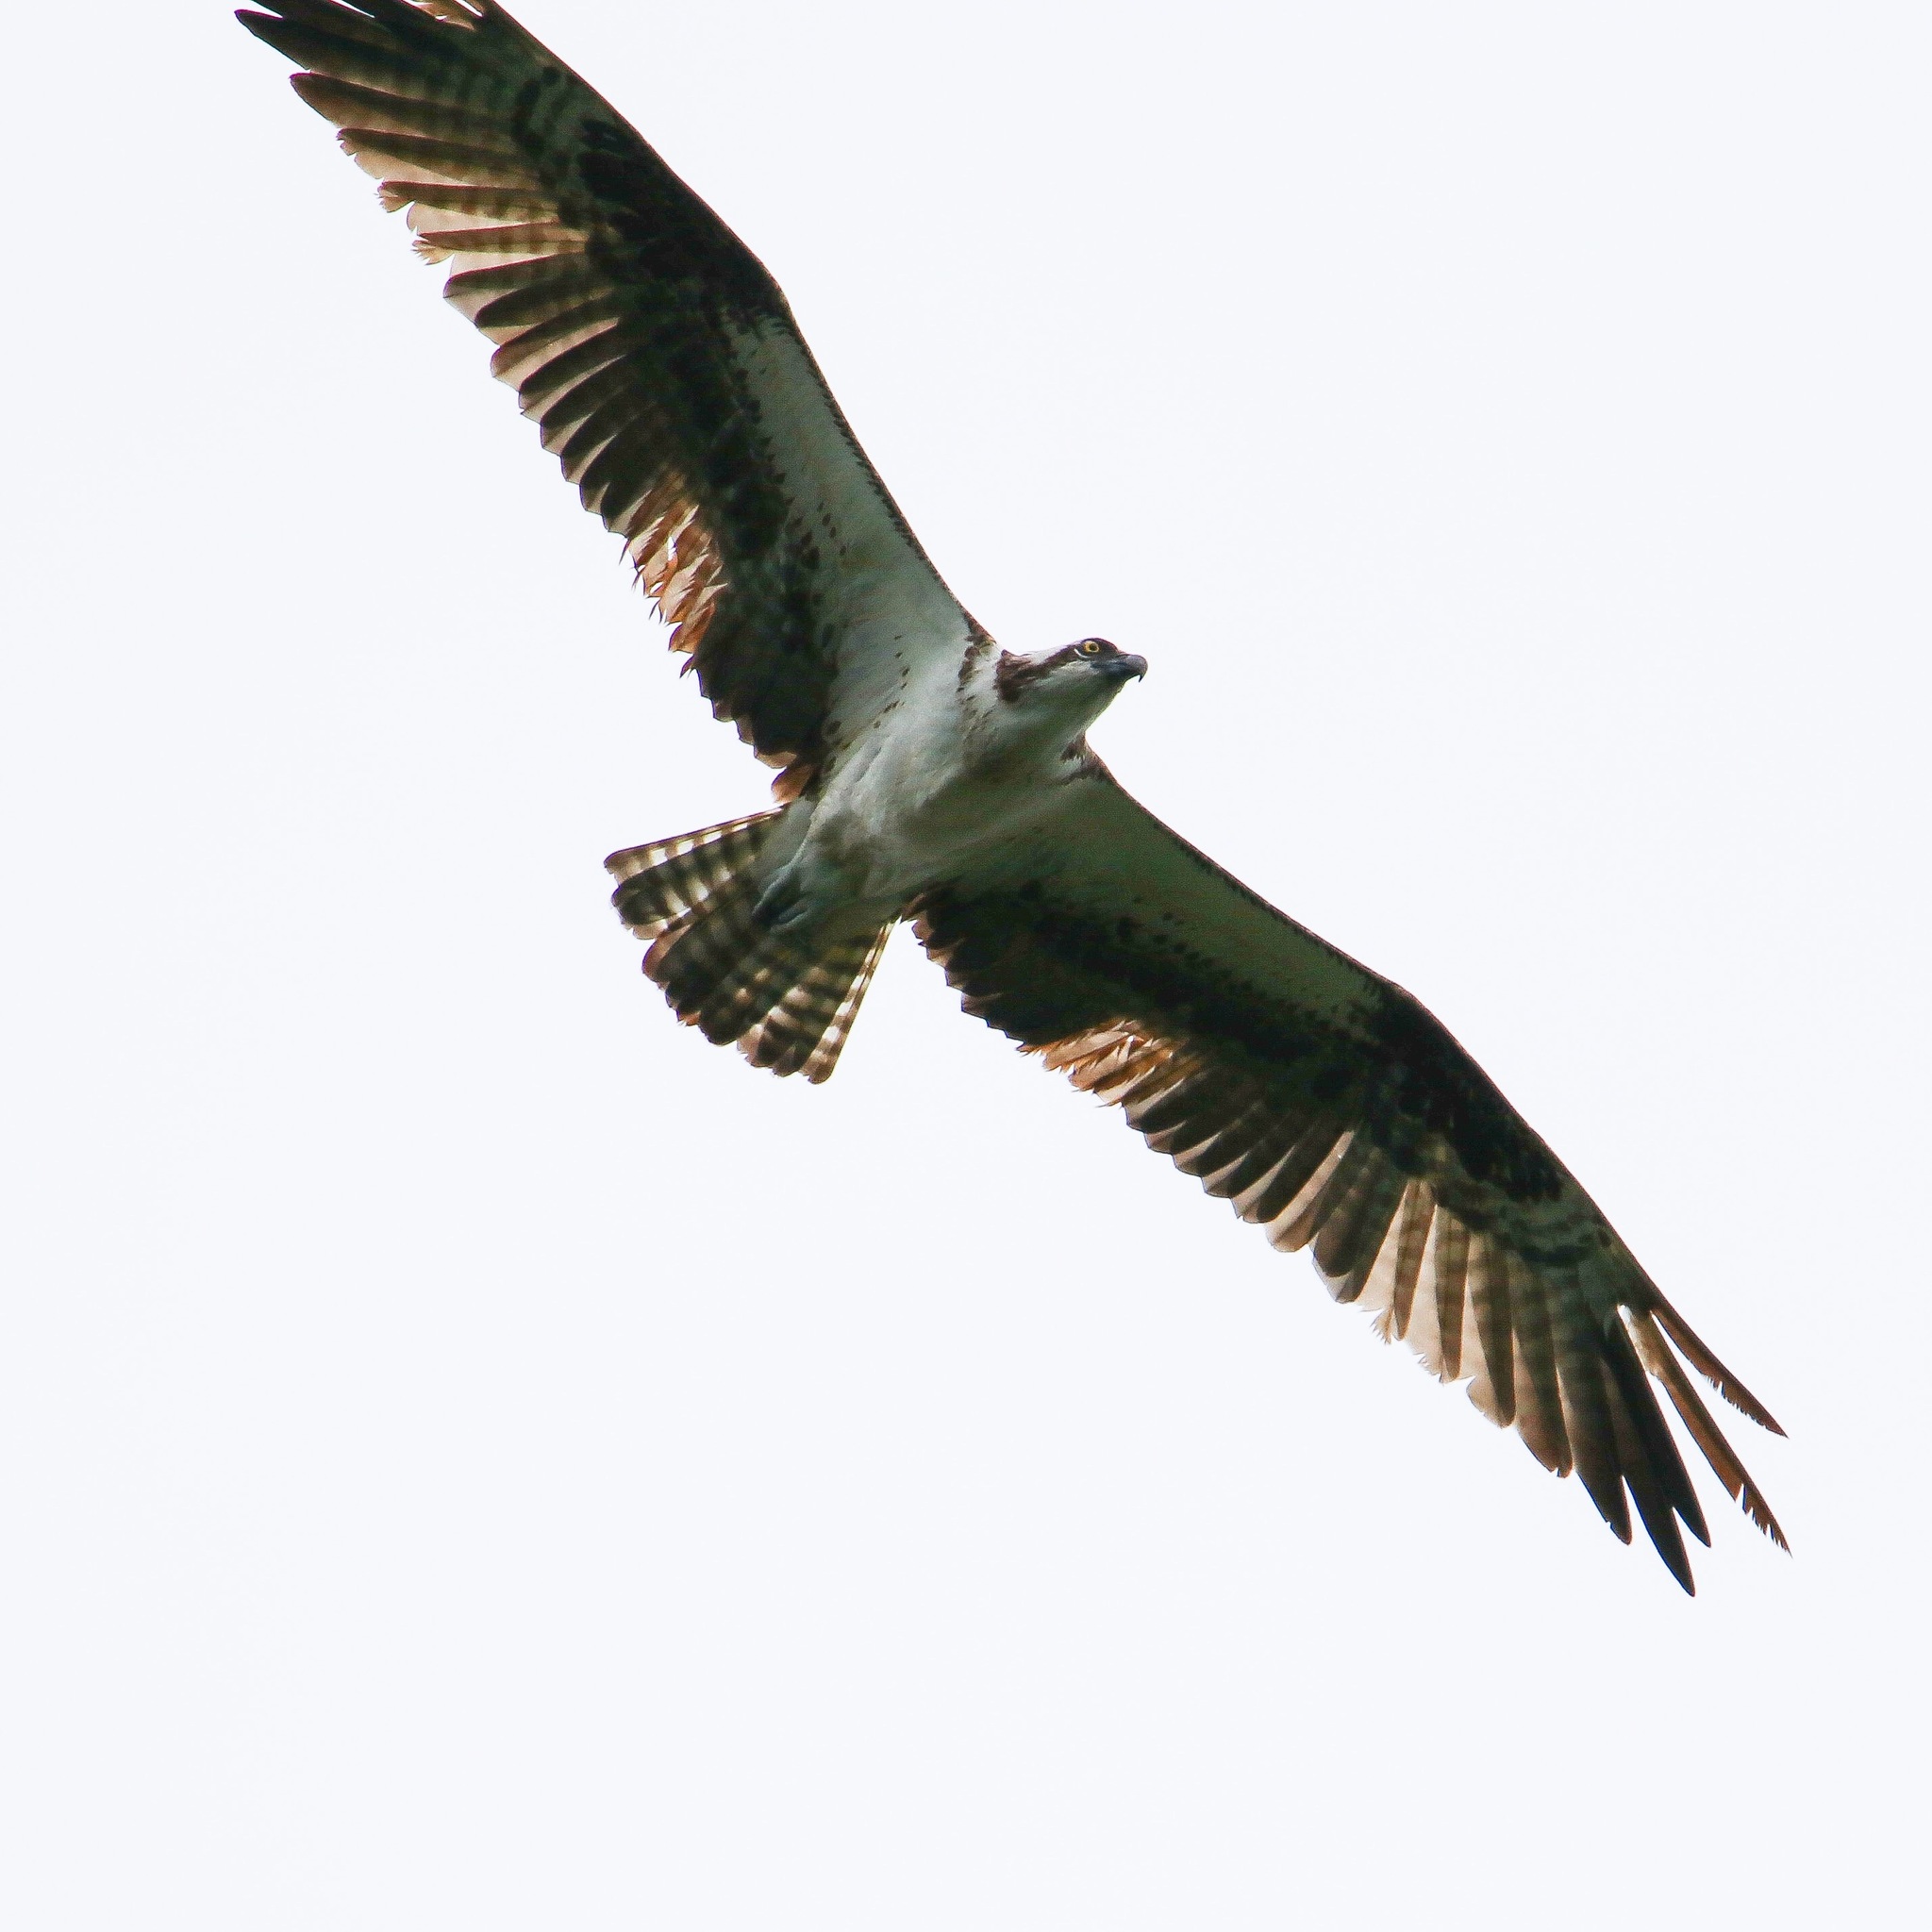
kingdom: Animalia
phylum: Chordata
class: Aves
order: Accipitriformes
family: Pandionidae
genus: Pandion
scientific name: Pandion haliaetus
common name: Osprey
